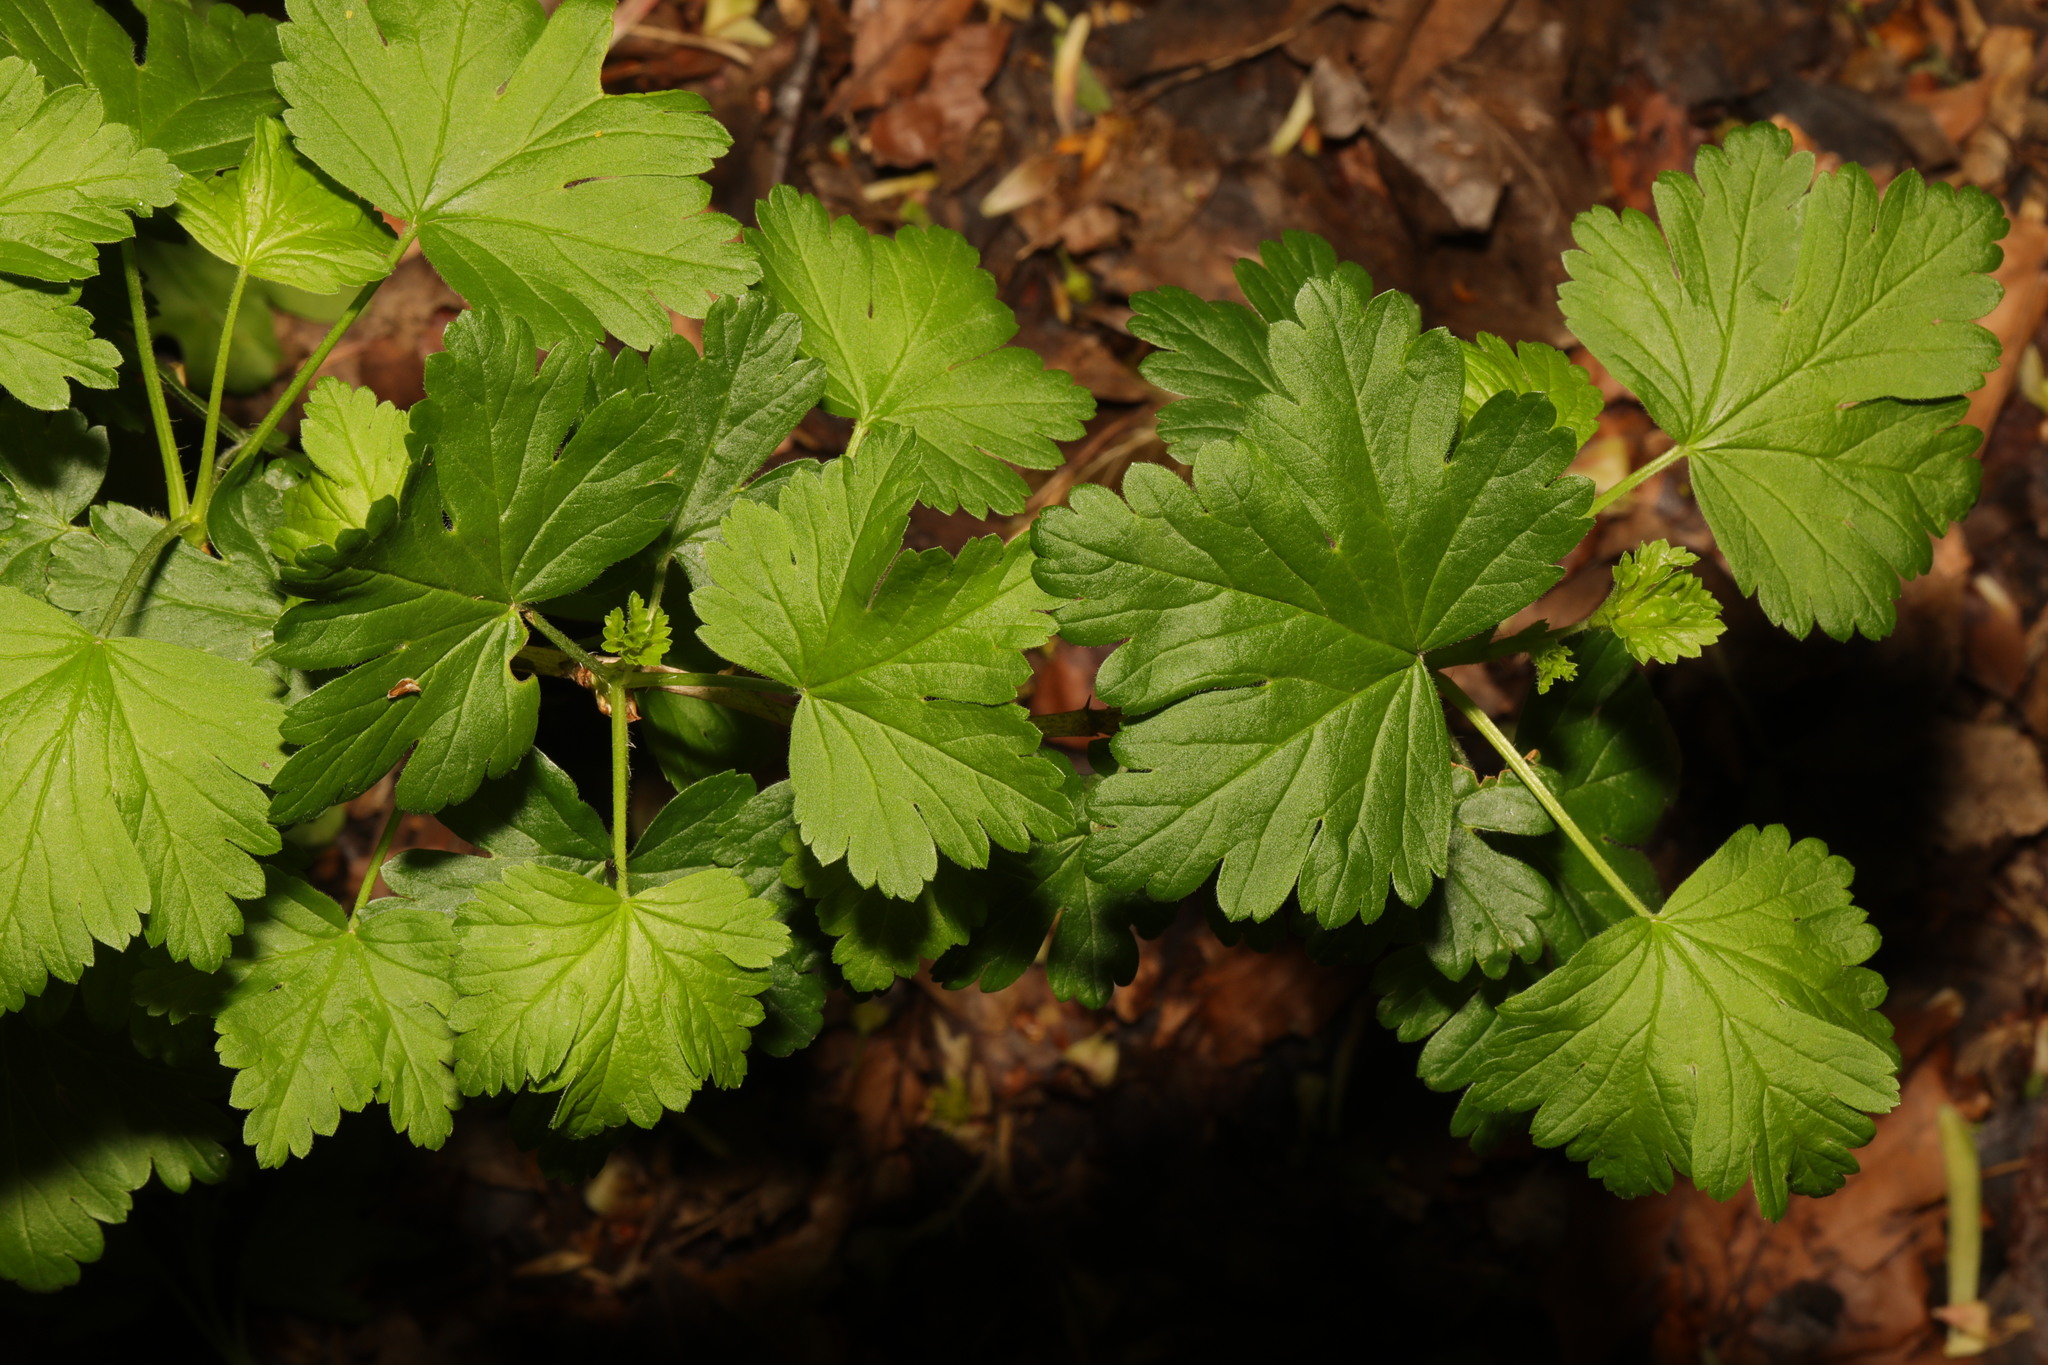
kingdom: Plantae
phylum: Tracheophyta
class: Magnoliopsida
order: Saxifragales
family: Grossulariaceae
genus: Ribes
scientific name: Ribes uva-crispa
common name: Gooseberry
